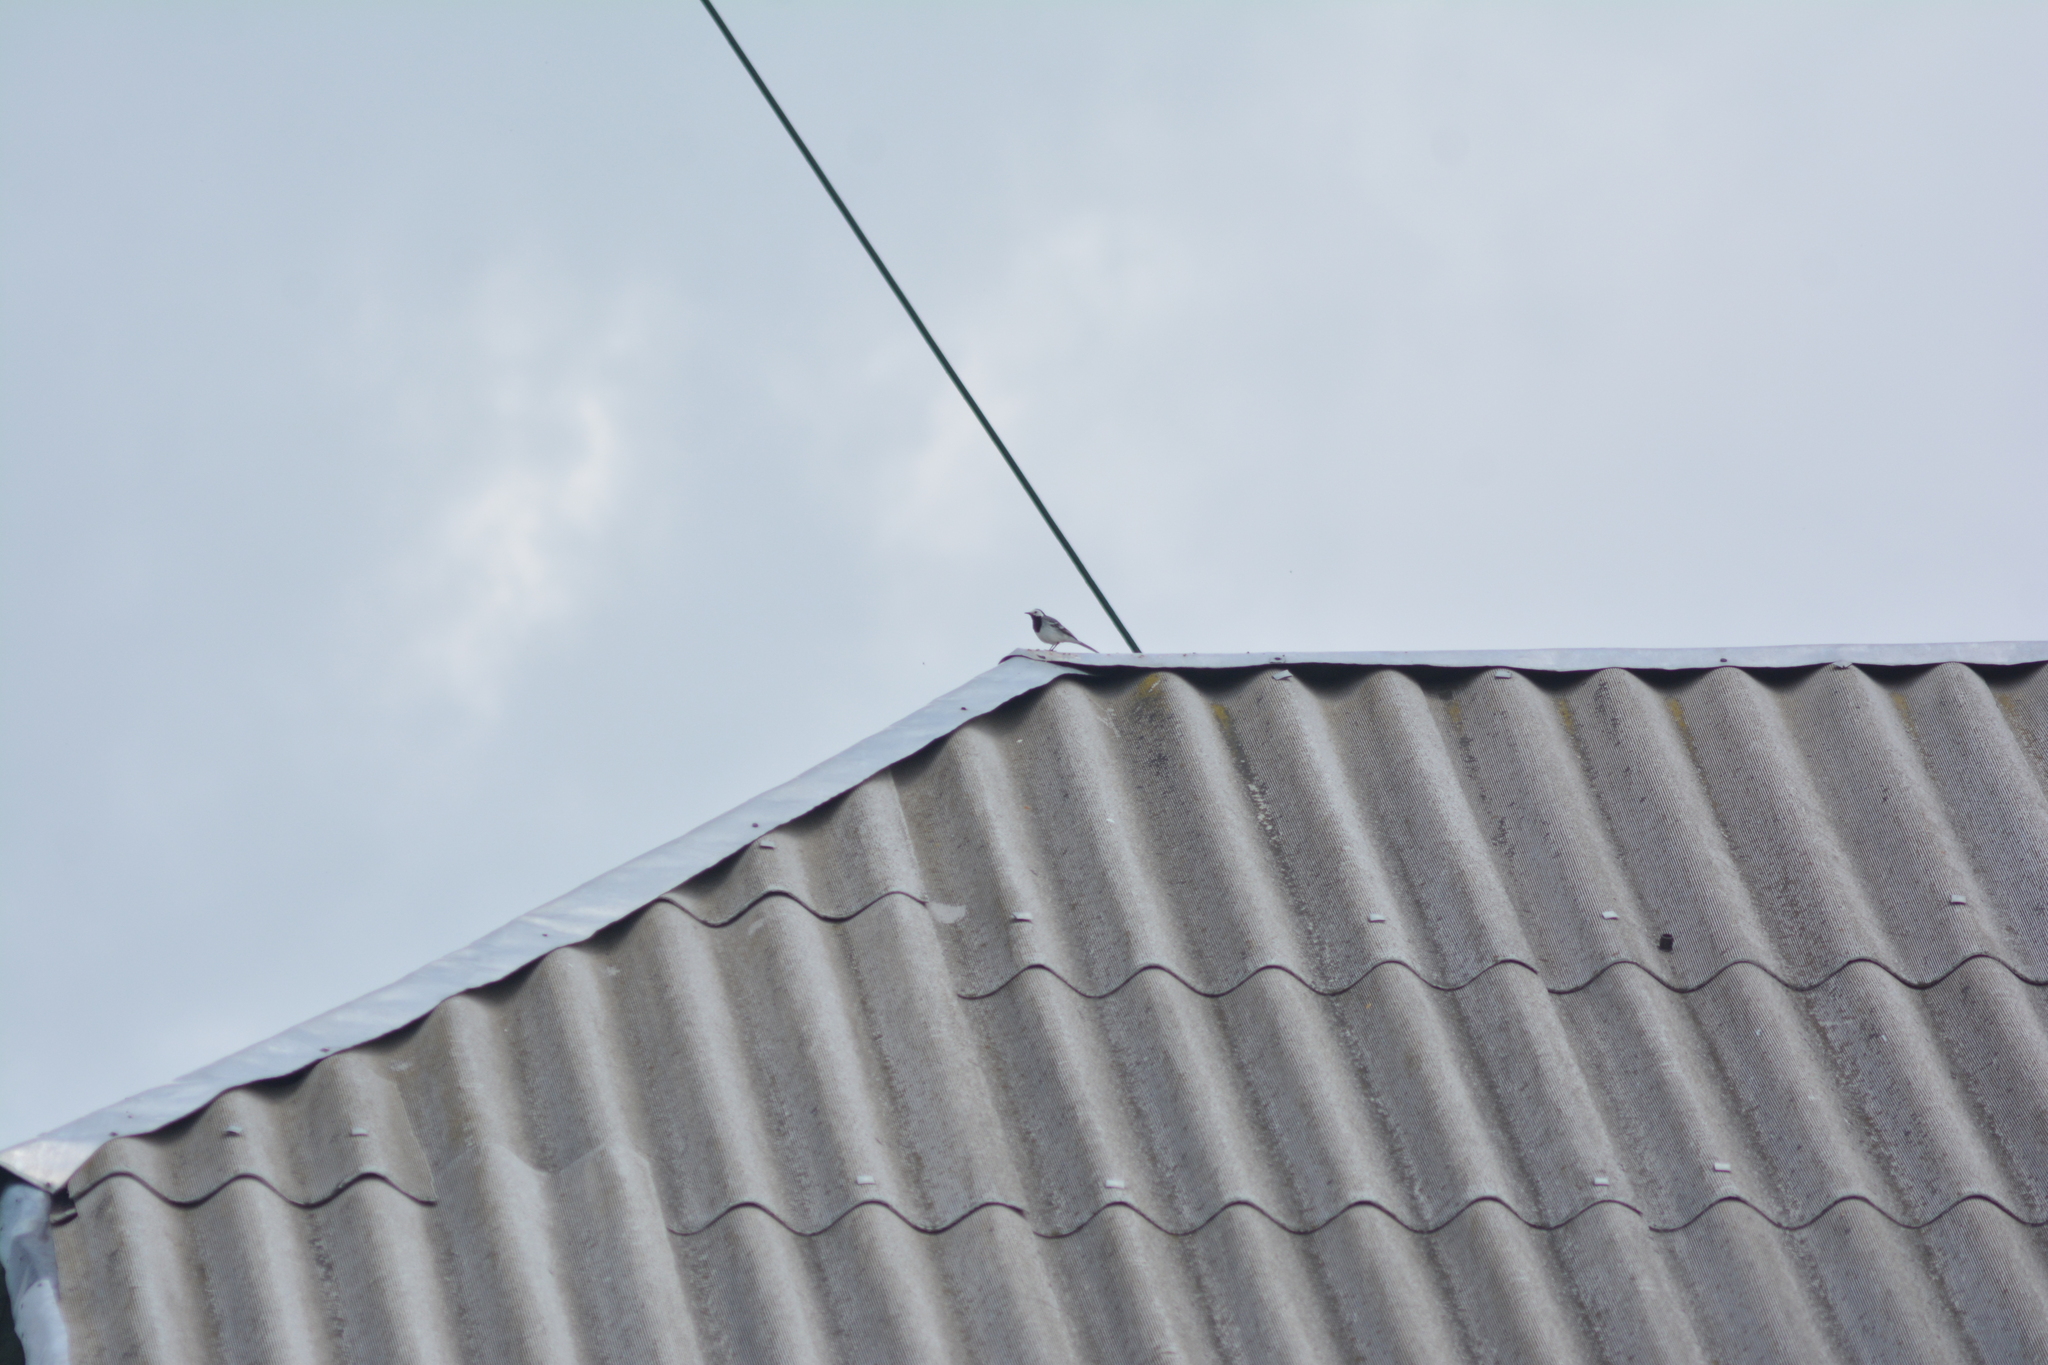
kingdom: Animalia
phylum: Chordata
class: Aves
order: Passeriformes
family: Motacillidae
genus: Motacilla
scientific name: Motacilla alba
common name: White wagtail
